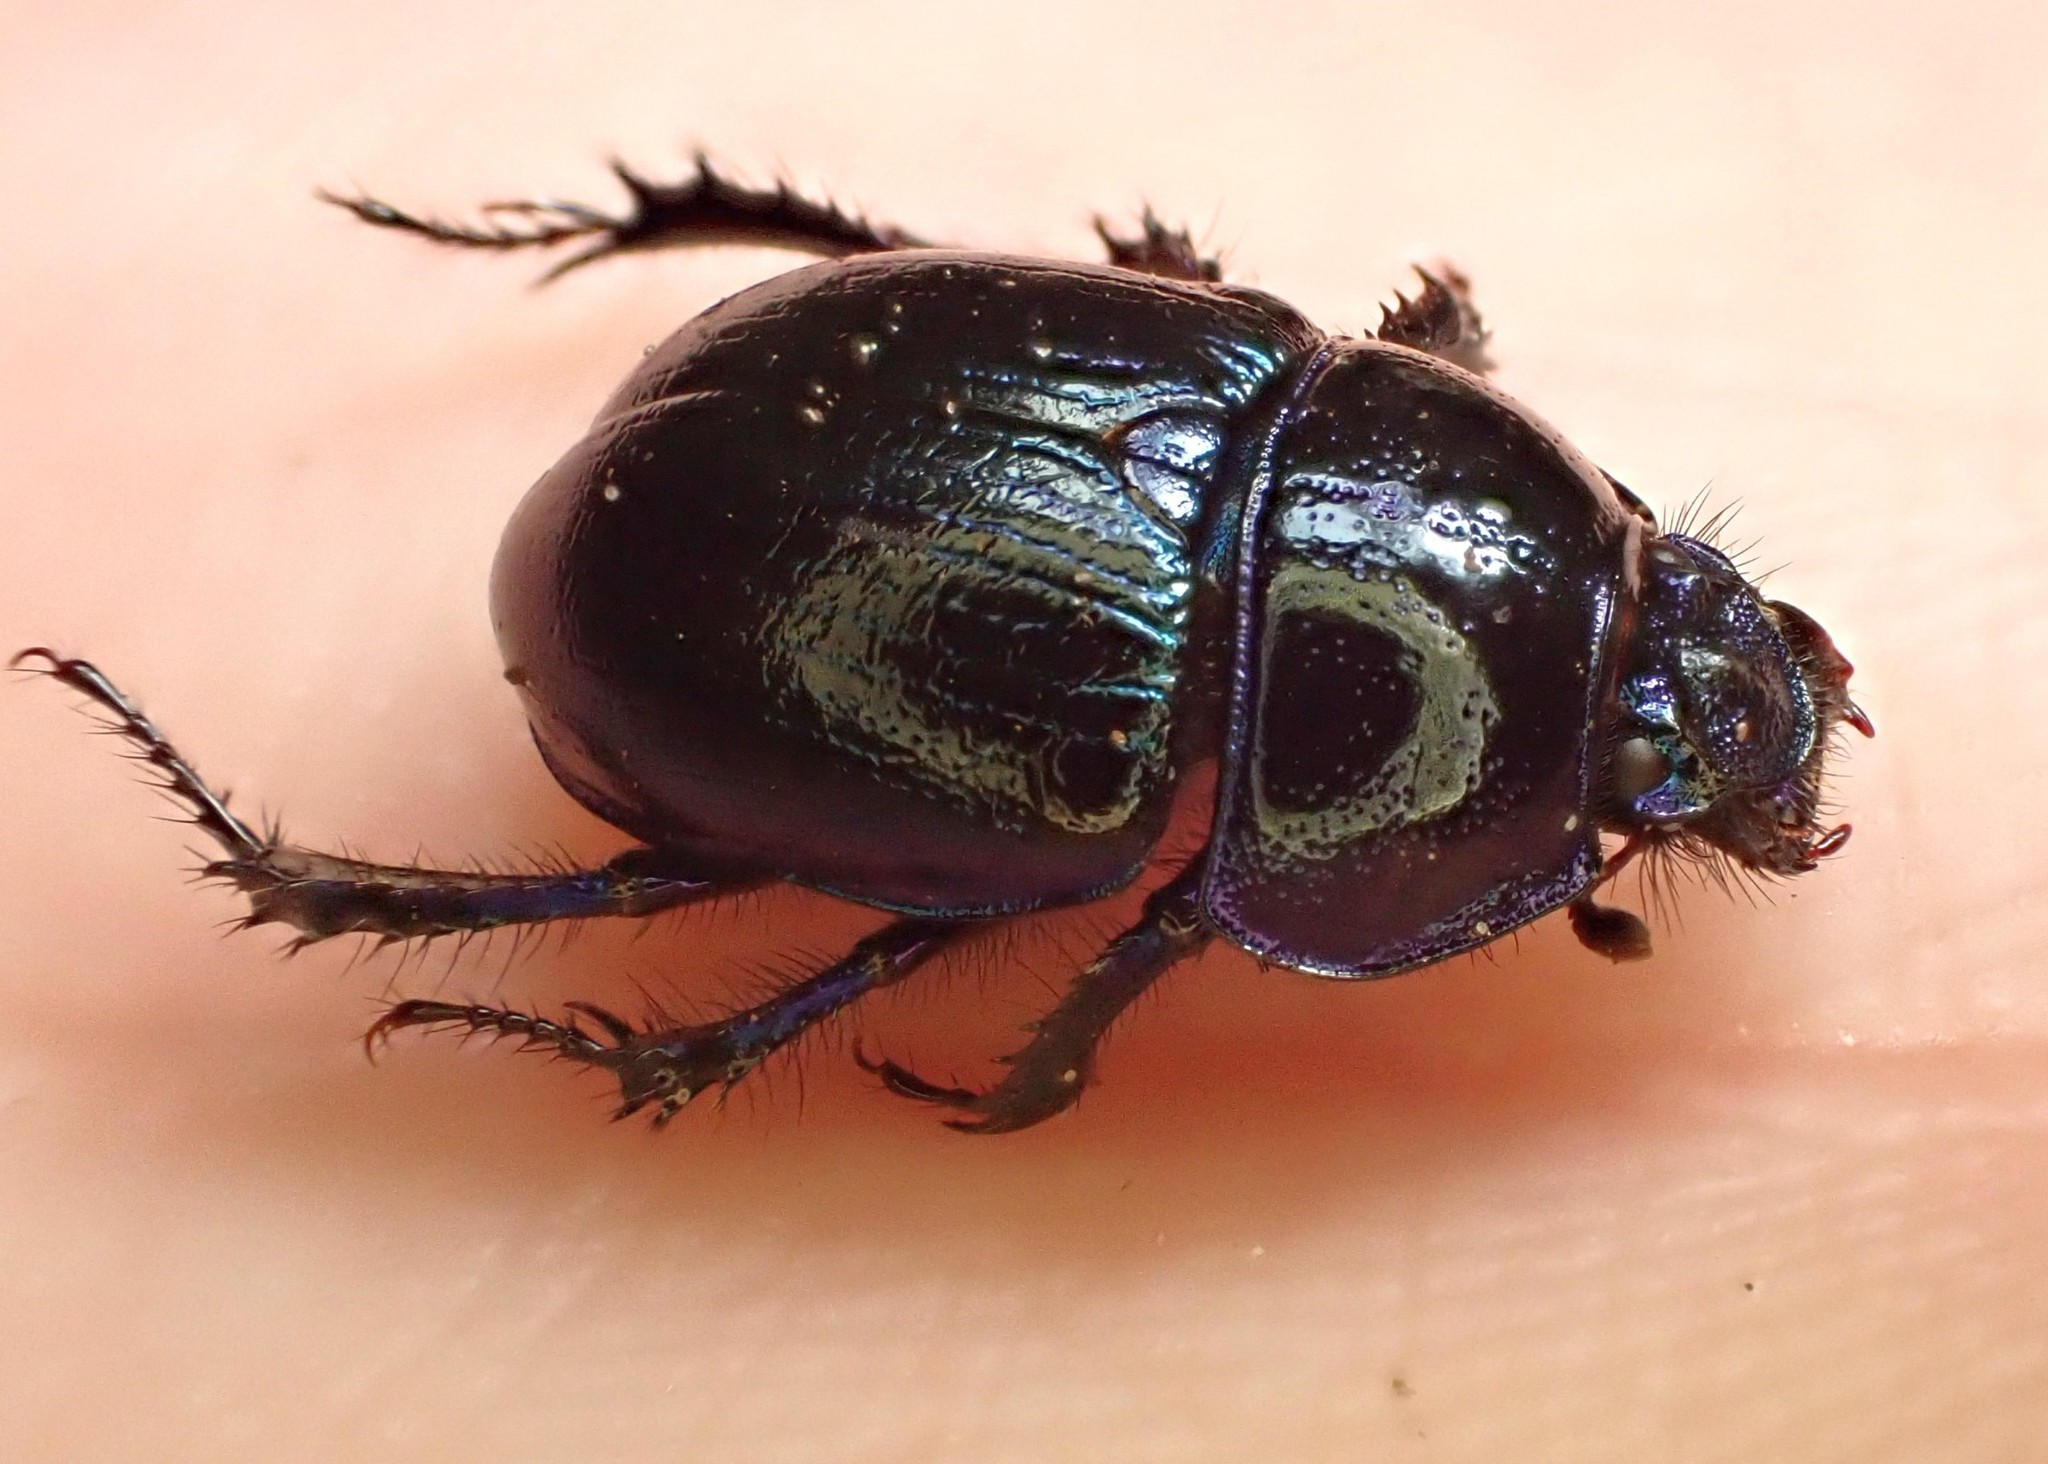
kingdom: Animalia
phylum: Arthropoda
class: Insecta
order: Coleoptera
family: Geotrupidae
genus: Anoplotrupes
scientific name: Anoplotrupes stercorosus
